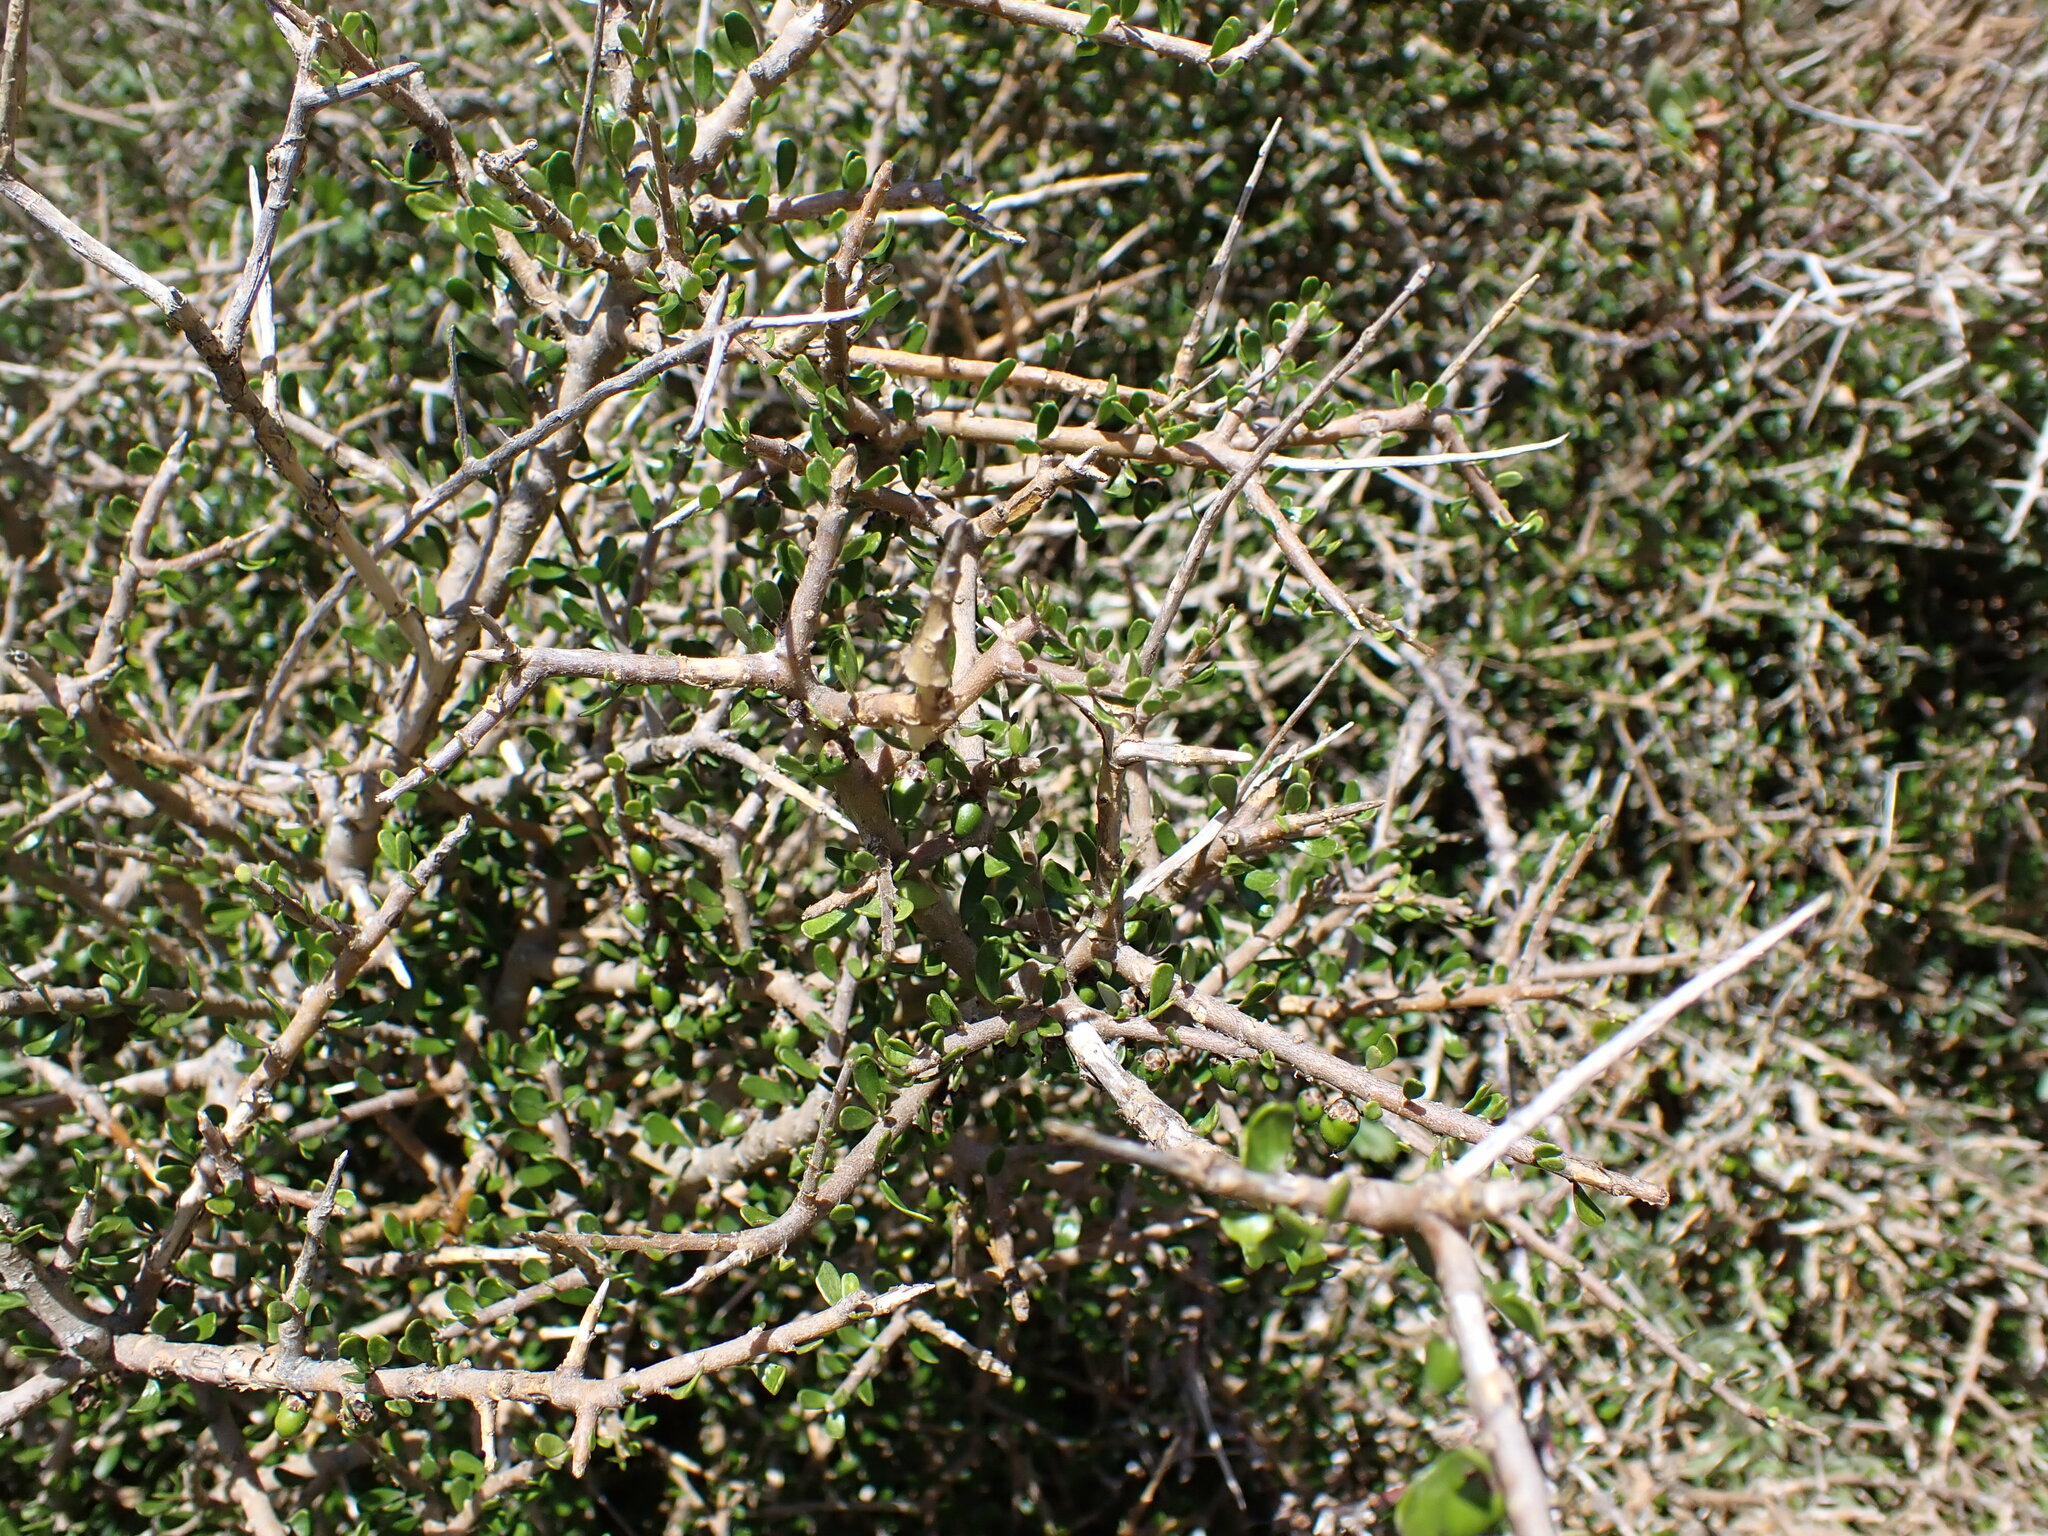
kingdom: Plantae
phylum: Tracheophyta
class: Magnoliopsida
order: Malpighiales
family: Violaceae
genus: Melicytus
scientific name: Melicytus alpinus
